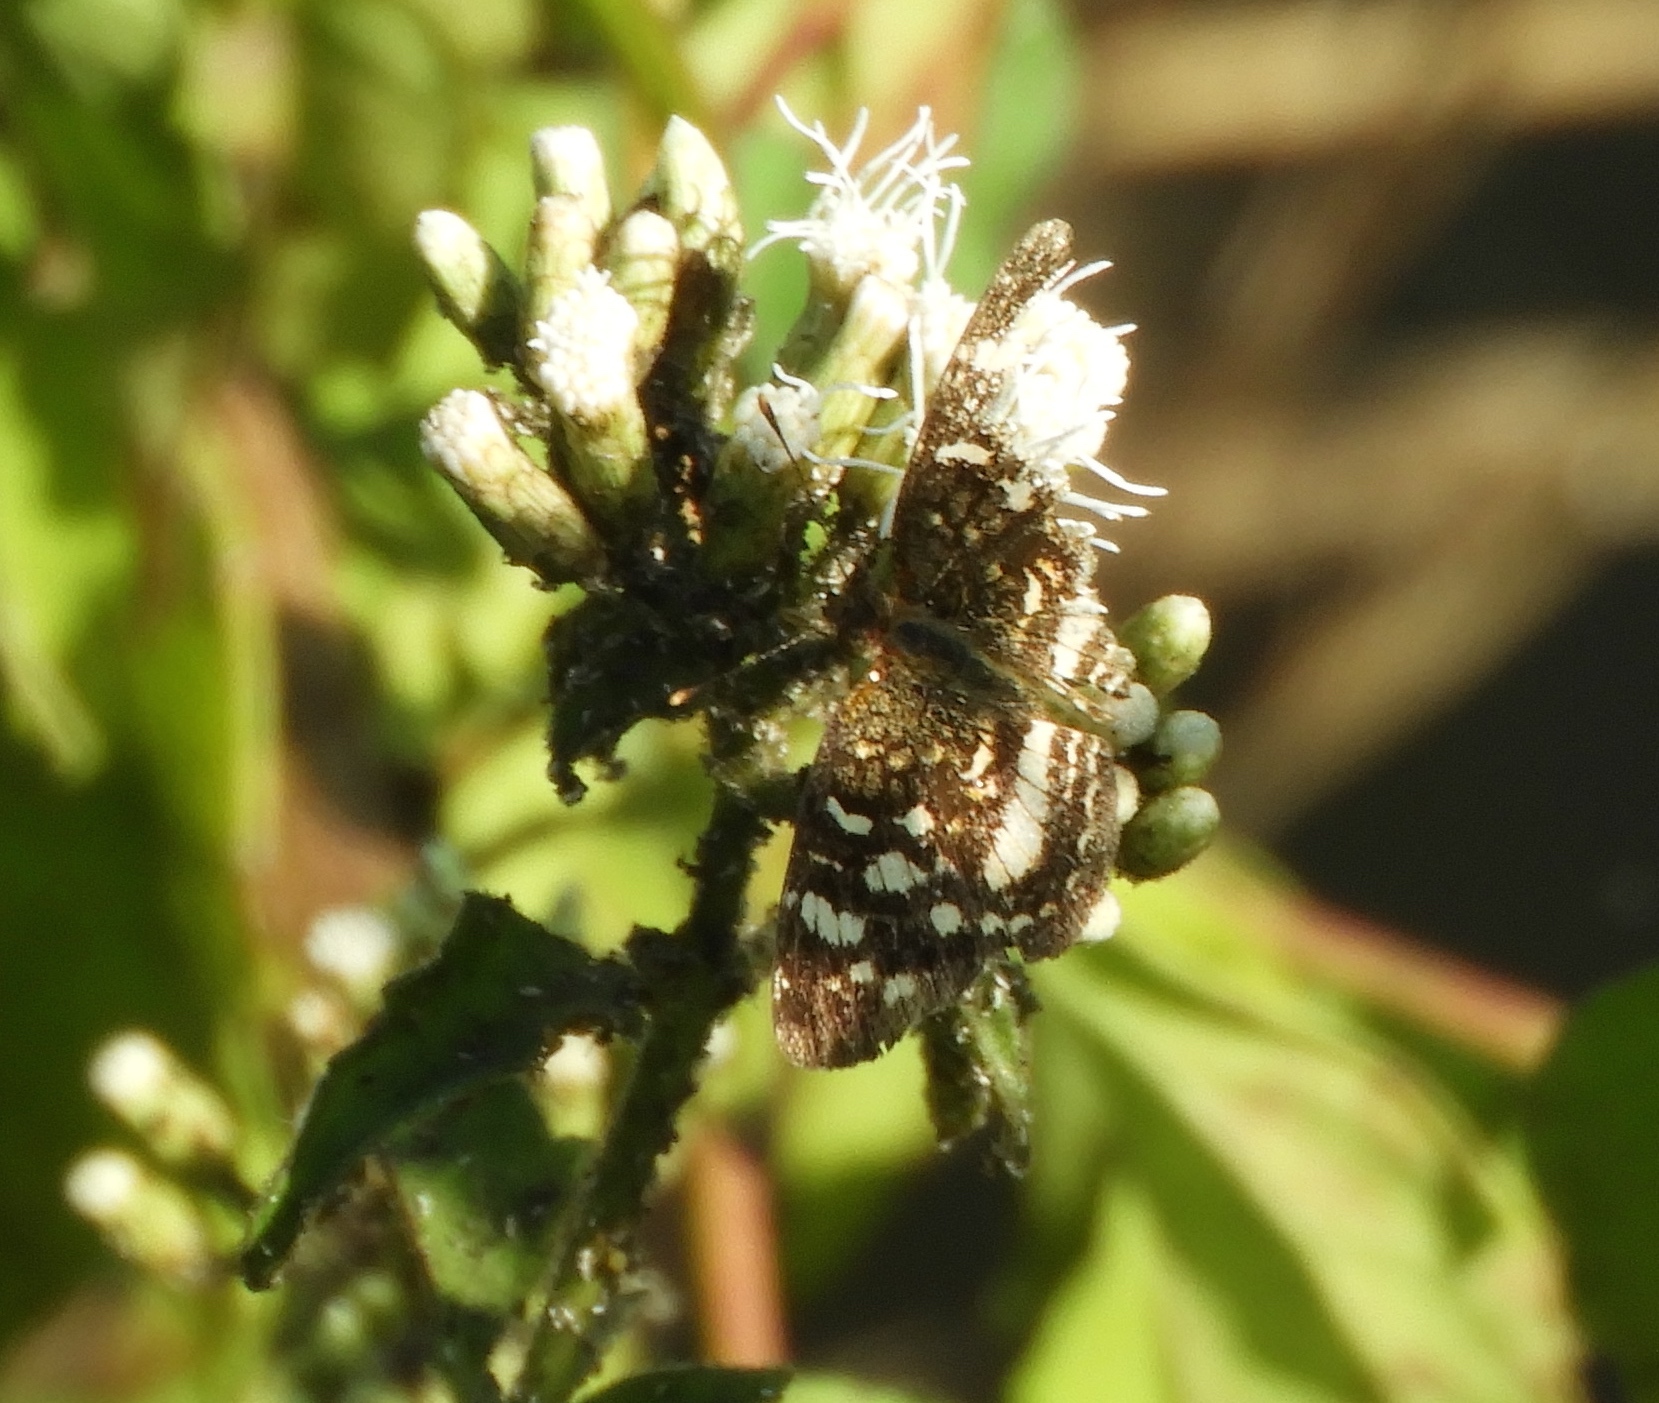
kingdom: Animalia
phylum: Arthropoda
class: Insecta
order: Lepidoptera
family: Nymphalidae
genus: Anthanassa
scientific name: Anthanassa tulcis
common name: Pale-banded crescent
